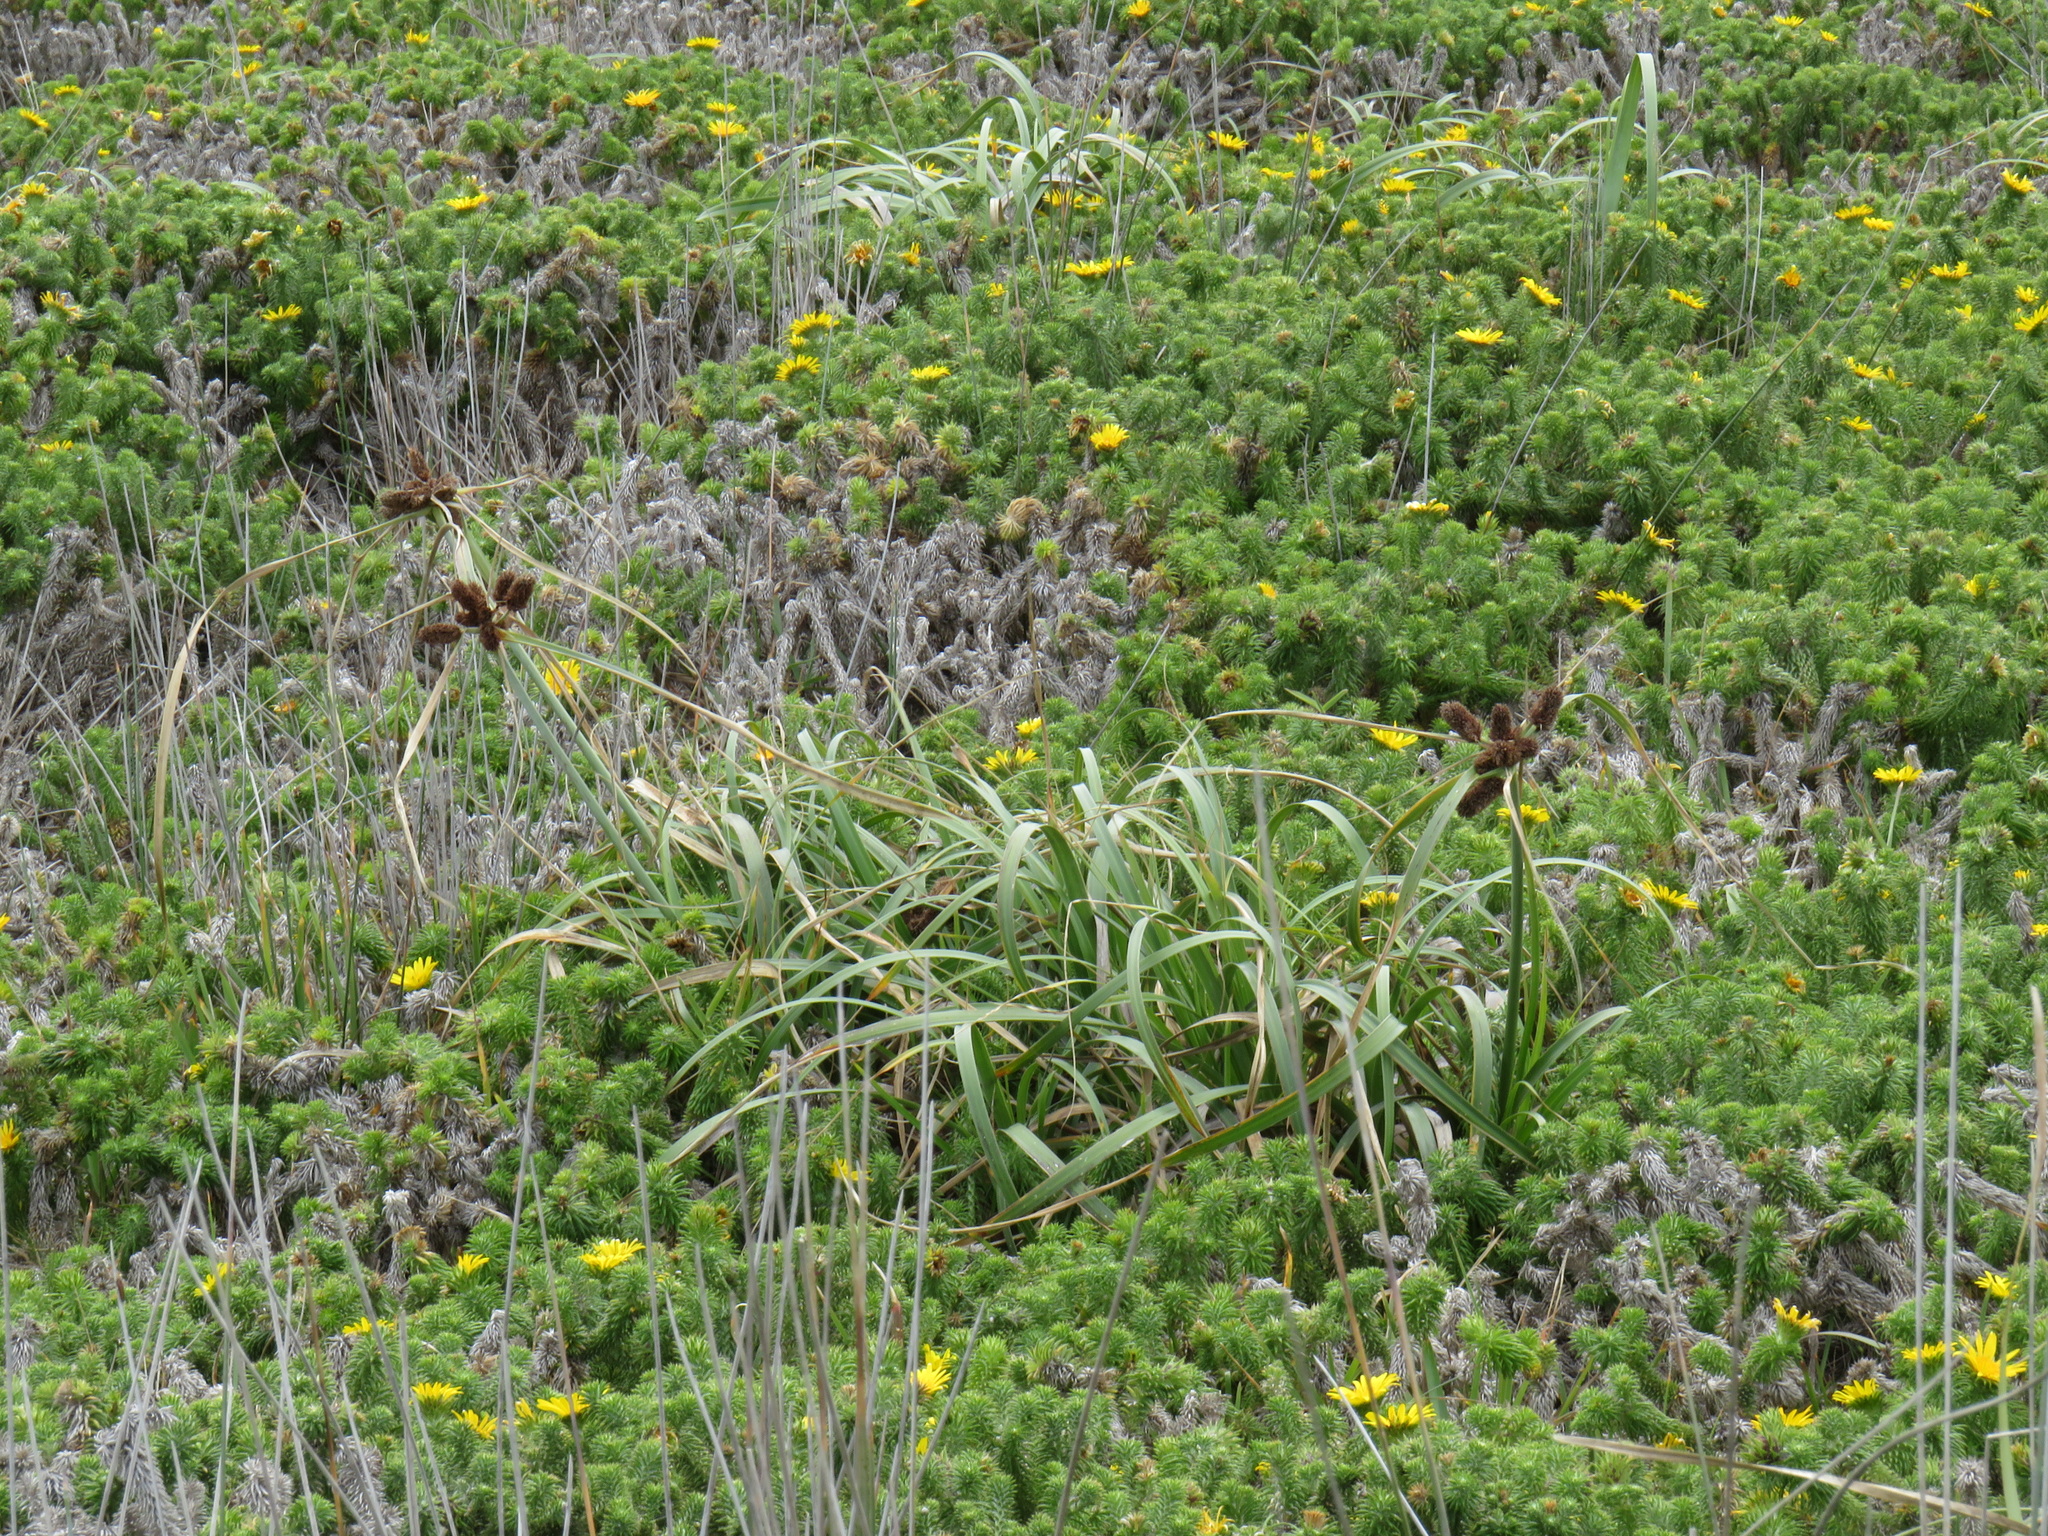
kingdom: Plantae
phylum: Tracheophyta
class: Liliopsida
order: Poales
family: Cyperaceae
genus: Cyperus
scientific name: Cyperus thunbergii
